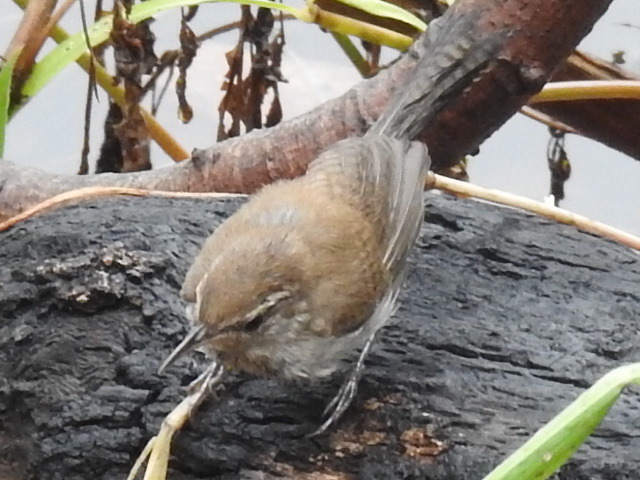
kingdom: Animalia
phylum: Chordata
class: Aves
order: Passeriformes
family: Troglodytidae
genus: Thryomanes
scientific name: Thryomanes bewickii
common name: Bewick's wren
